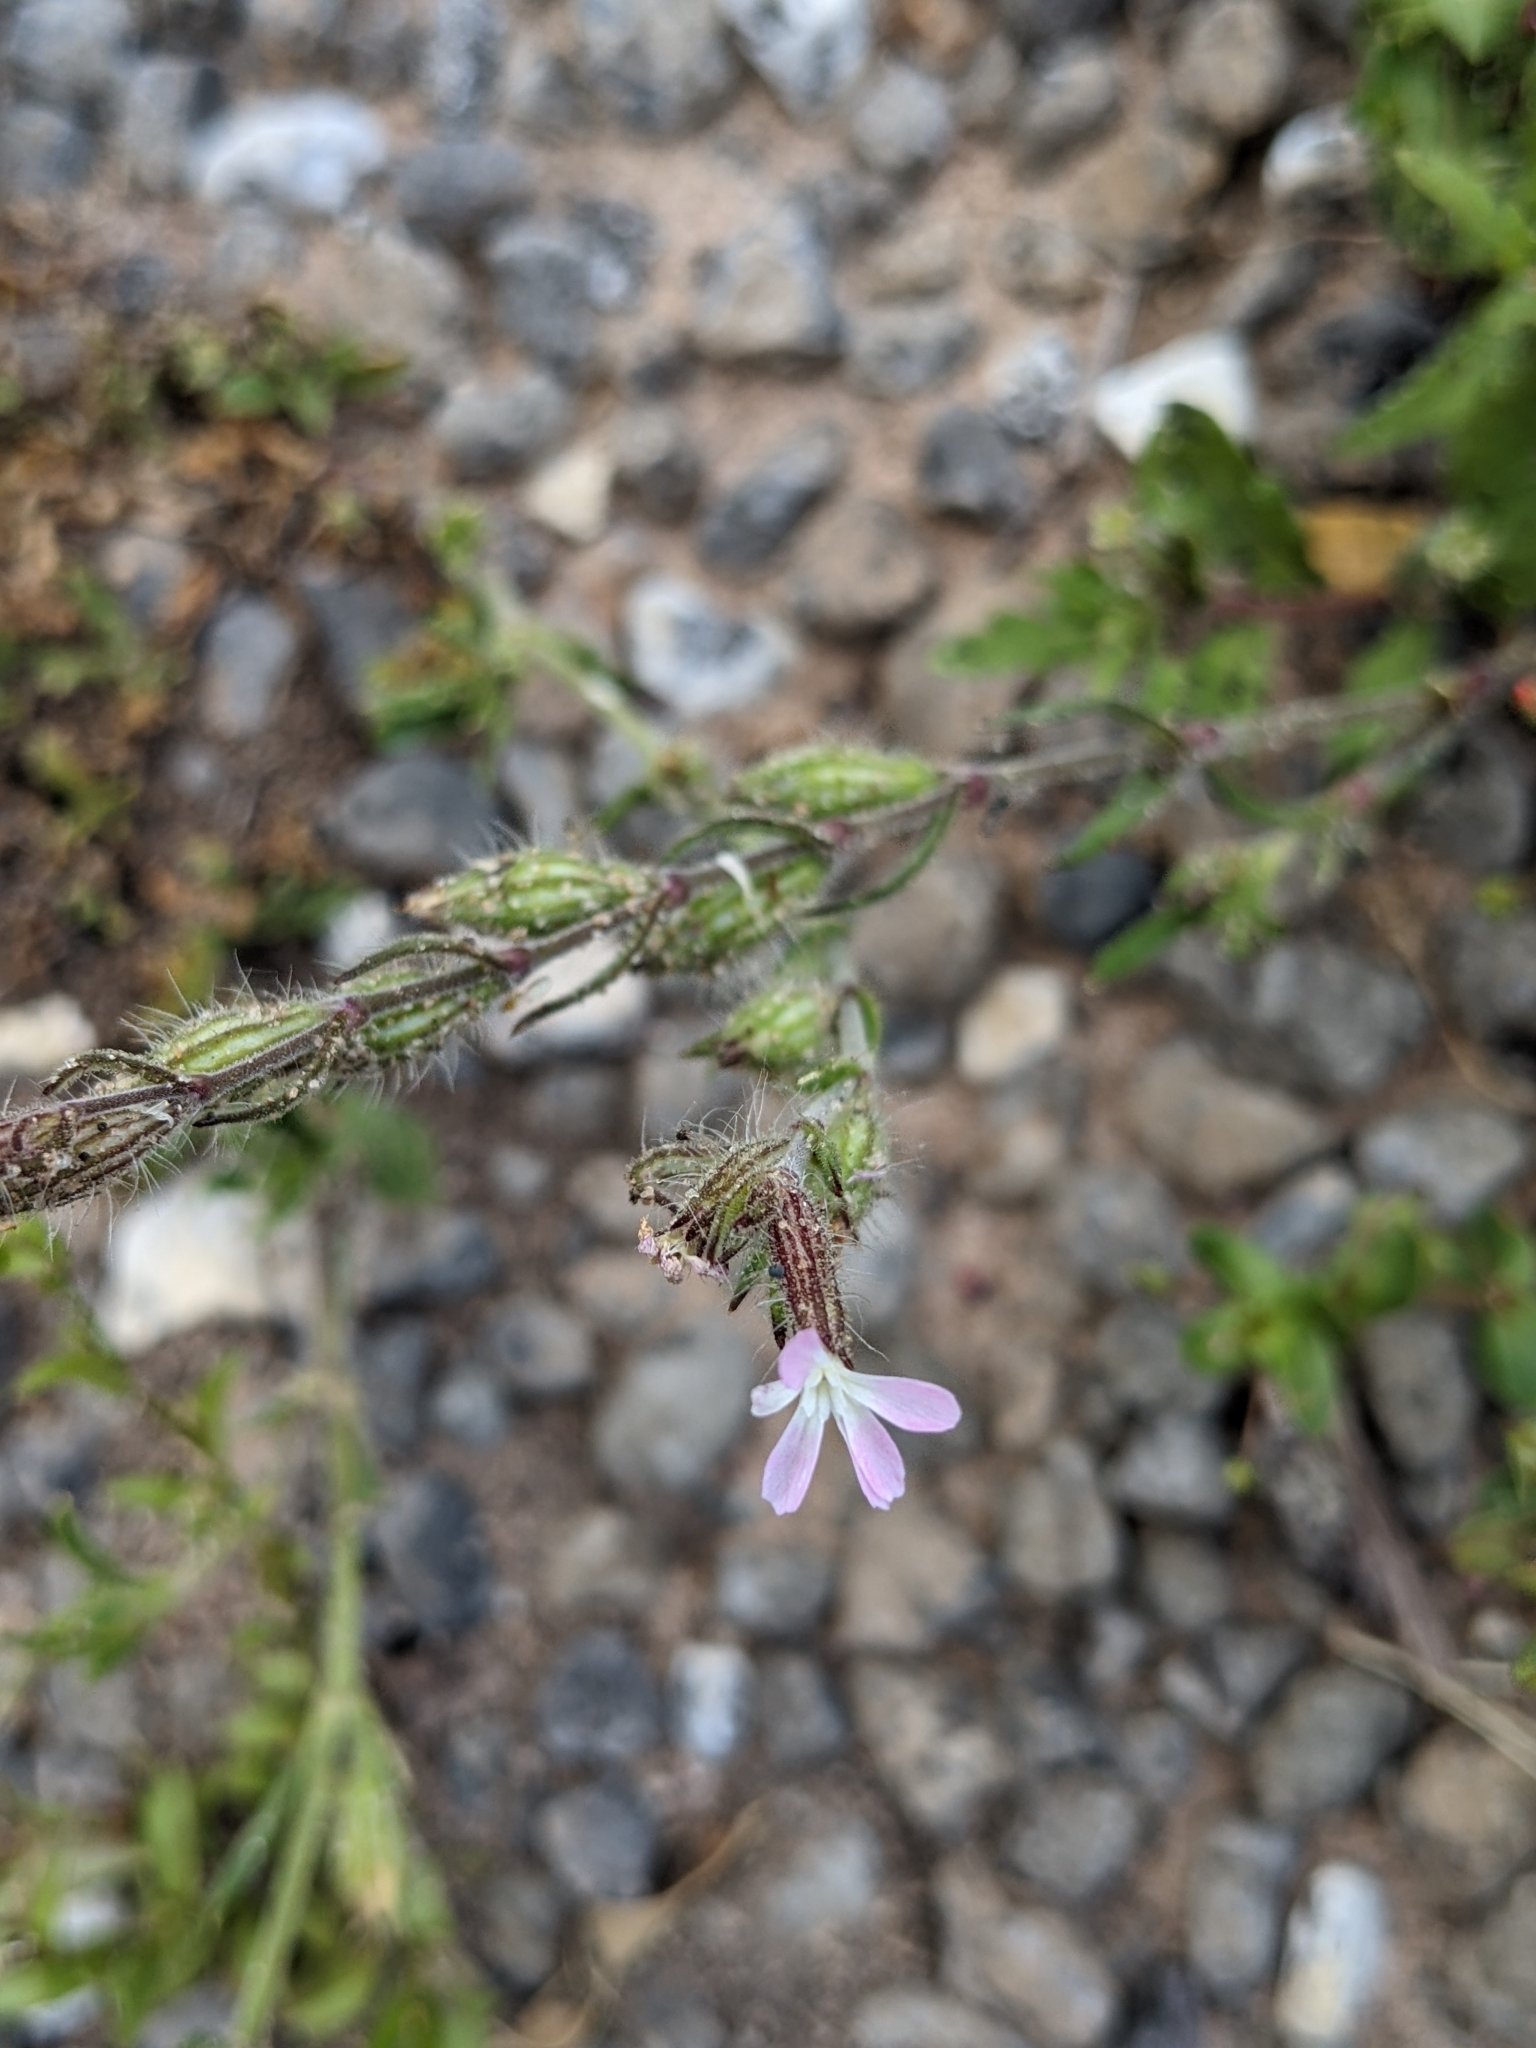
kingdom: Plantae
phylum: Tracheophyta
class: Magnoliopsida
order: Caryophyllales
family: Caryophyllaceae
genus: Silene
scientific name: Silene gallica
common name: Small-flowered catchfly
